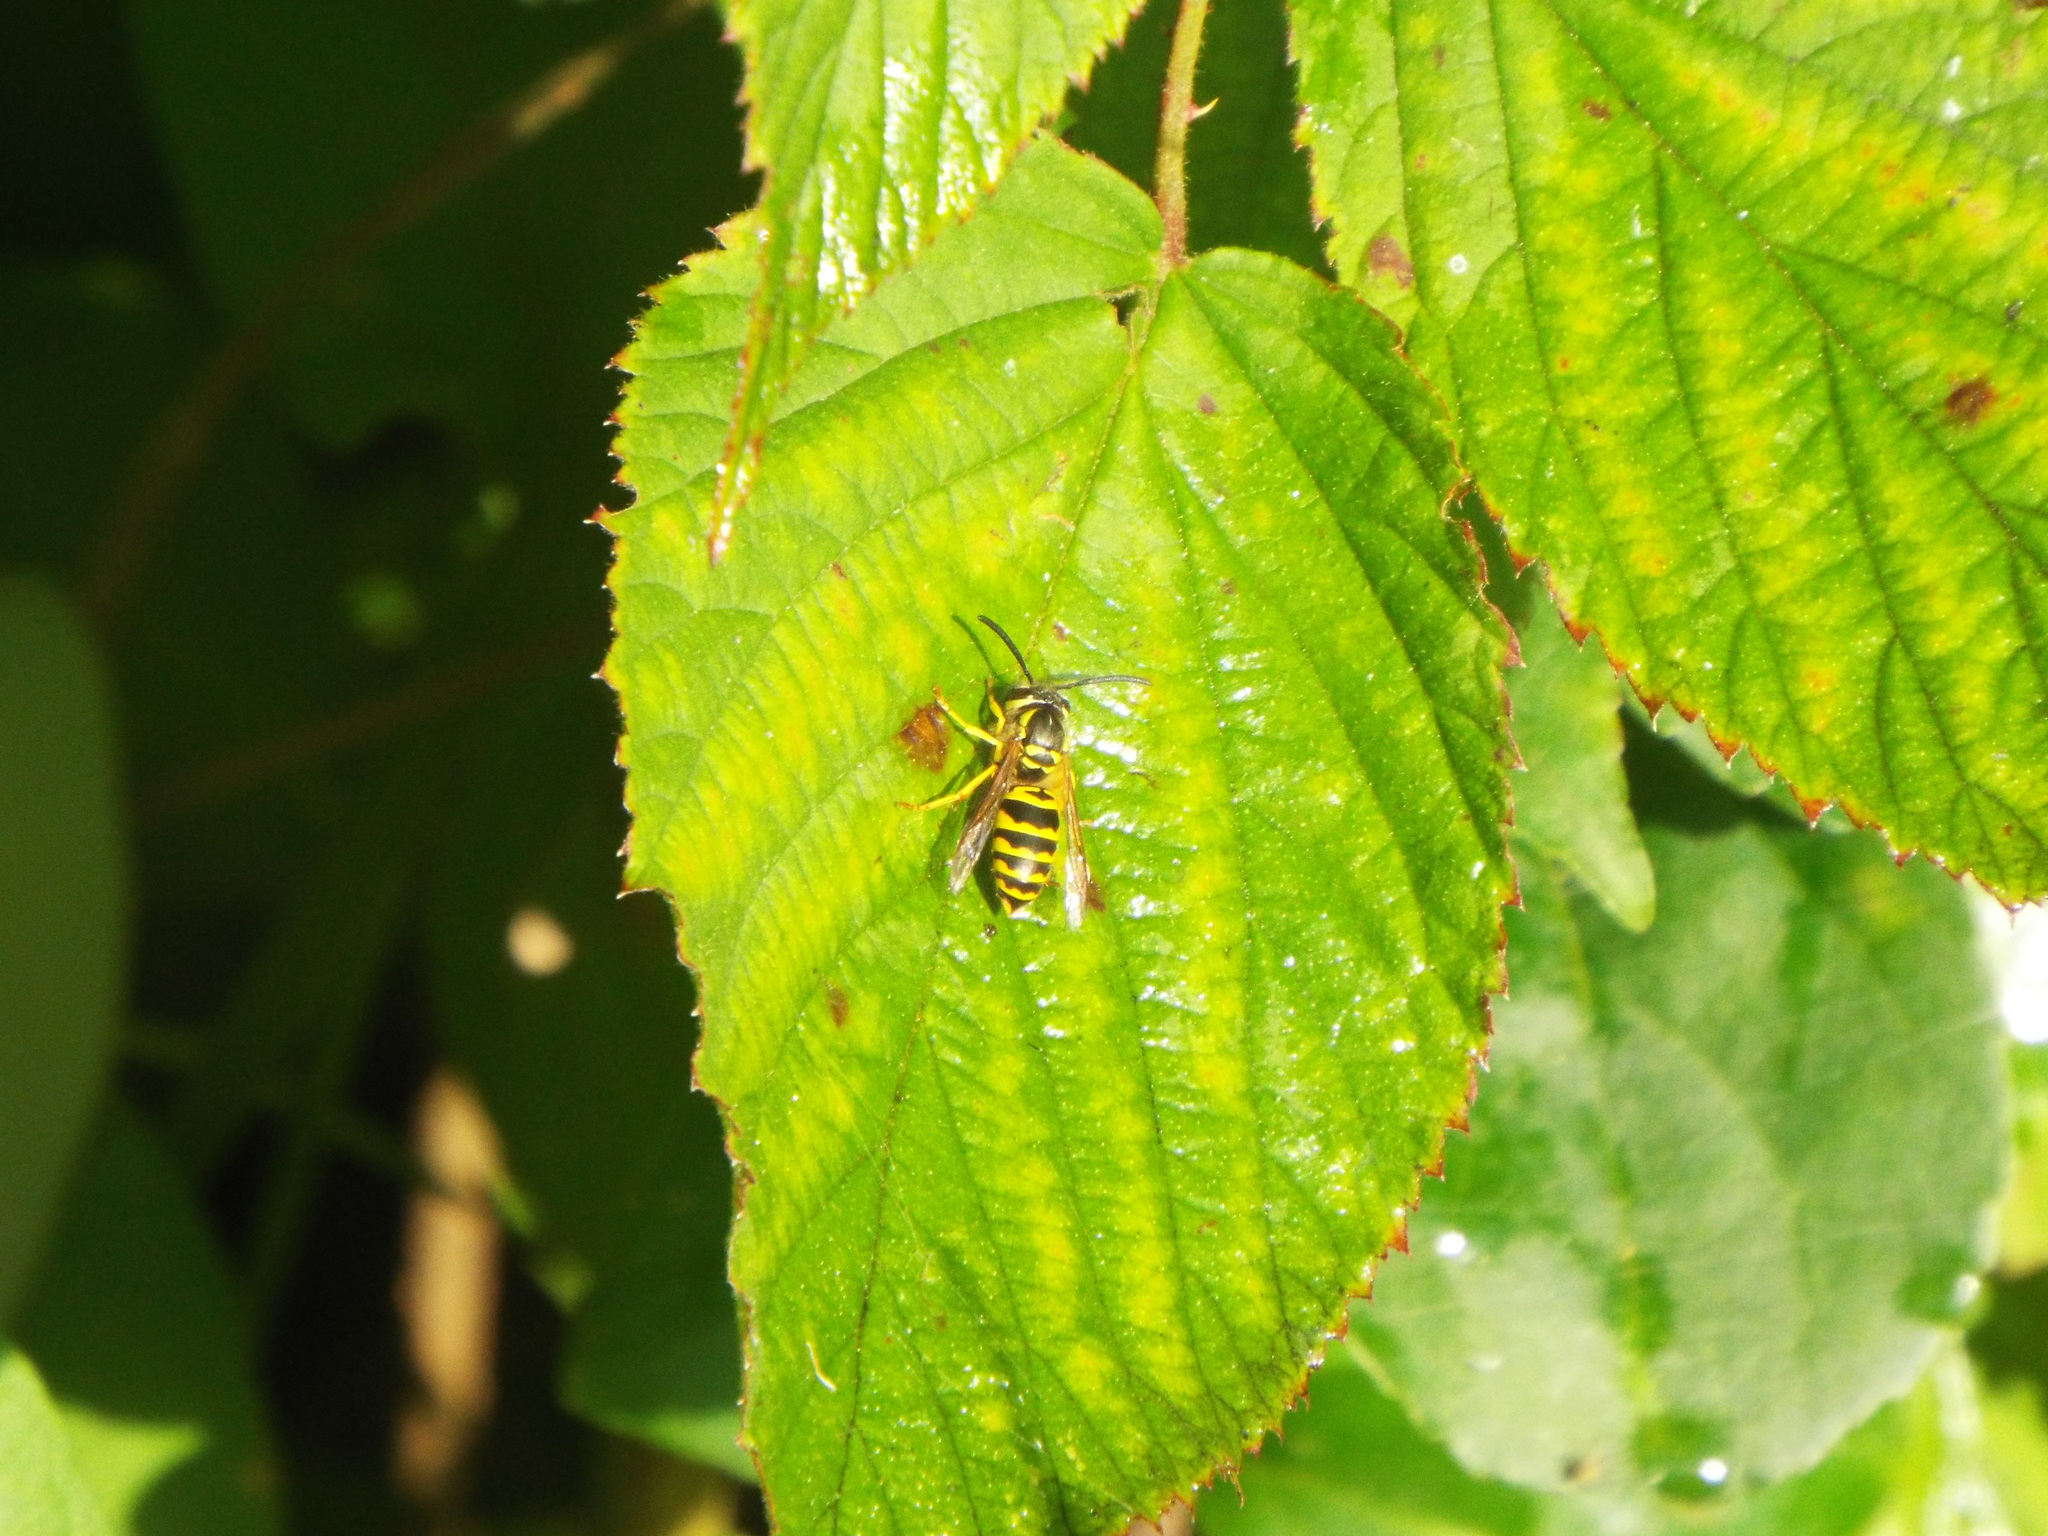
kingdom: Animalia
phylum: Arthropoda
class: Insecta
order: Hymenoptera
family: Vespidae
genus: Vespula
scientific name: Vespula maculifrons
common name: Eastern yellowjacket
